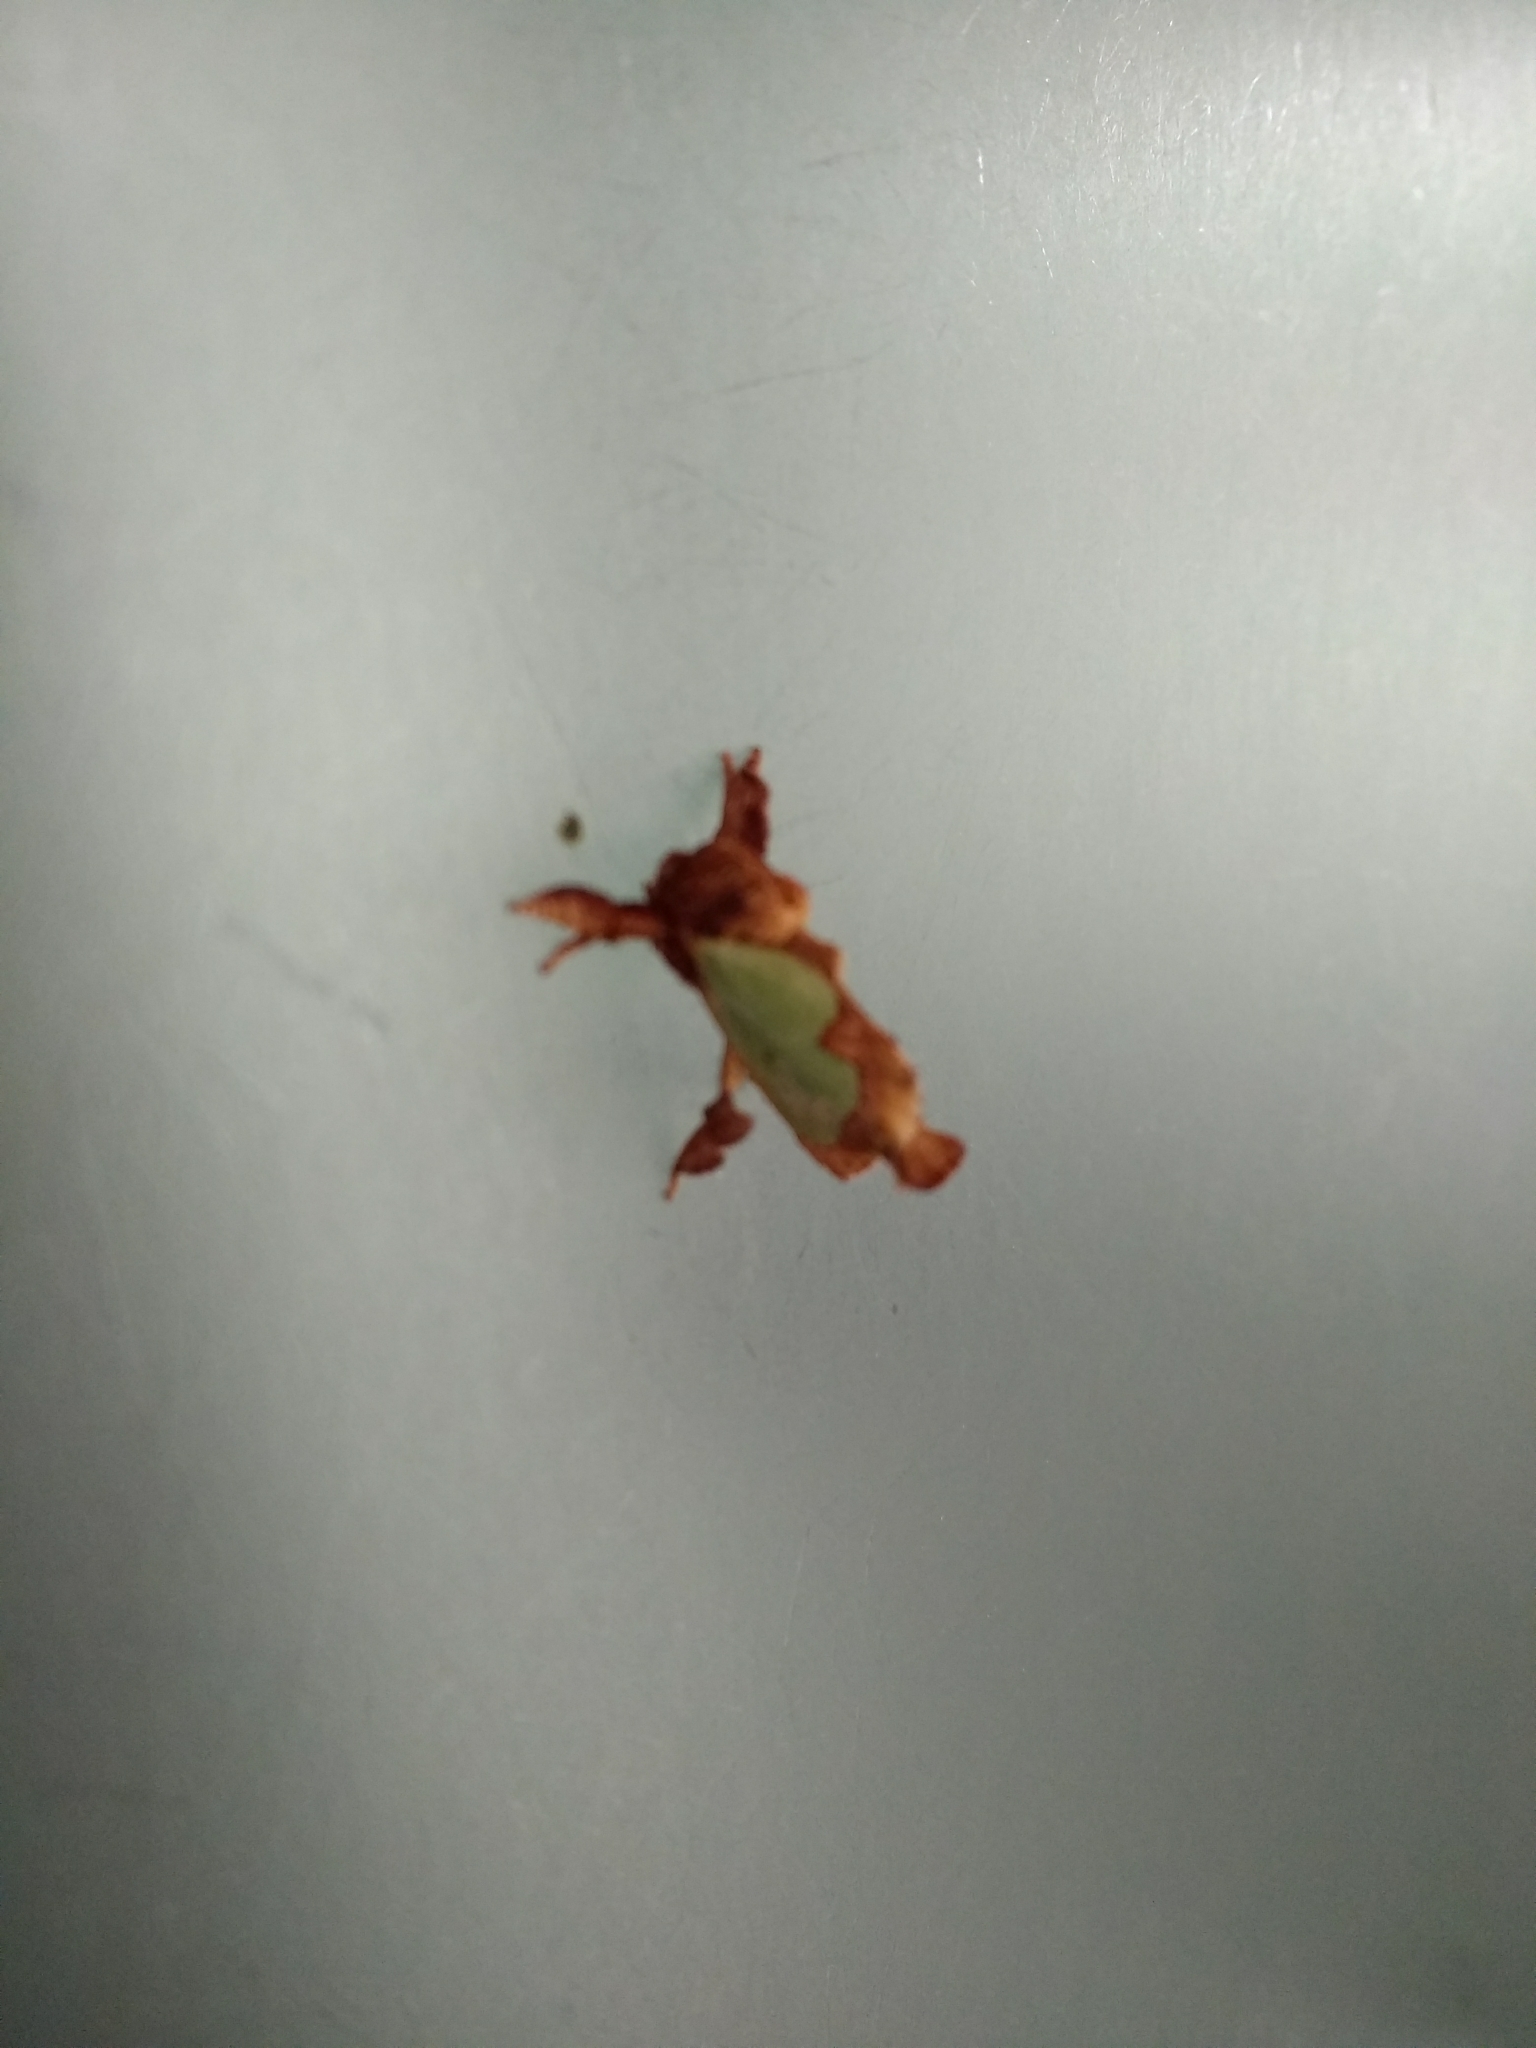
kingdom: Animalia
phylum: Arthropoda
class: Insecta
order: Lepidoptera
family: Limacodidae
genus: Euclea
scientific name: Euclea incisa
